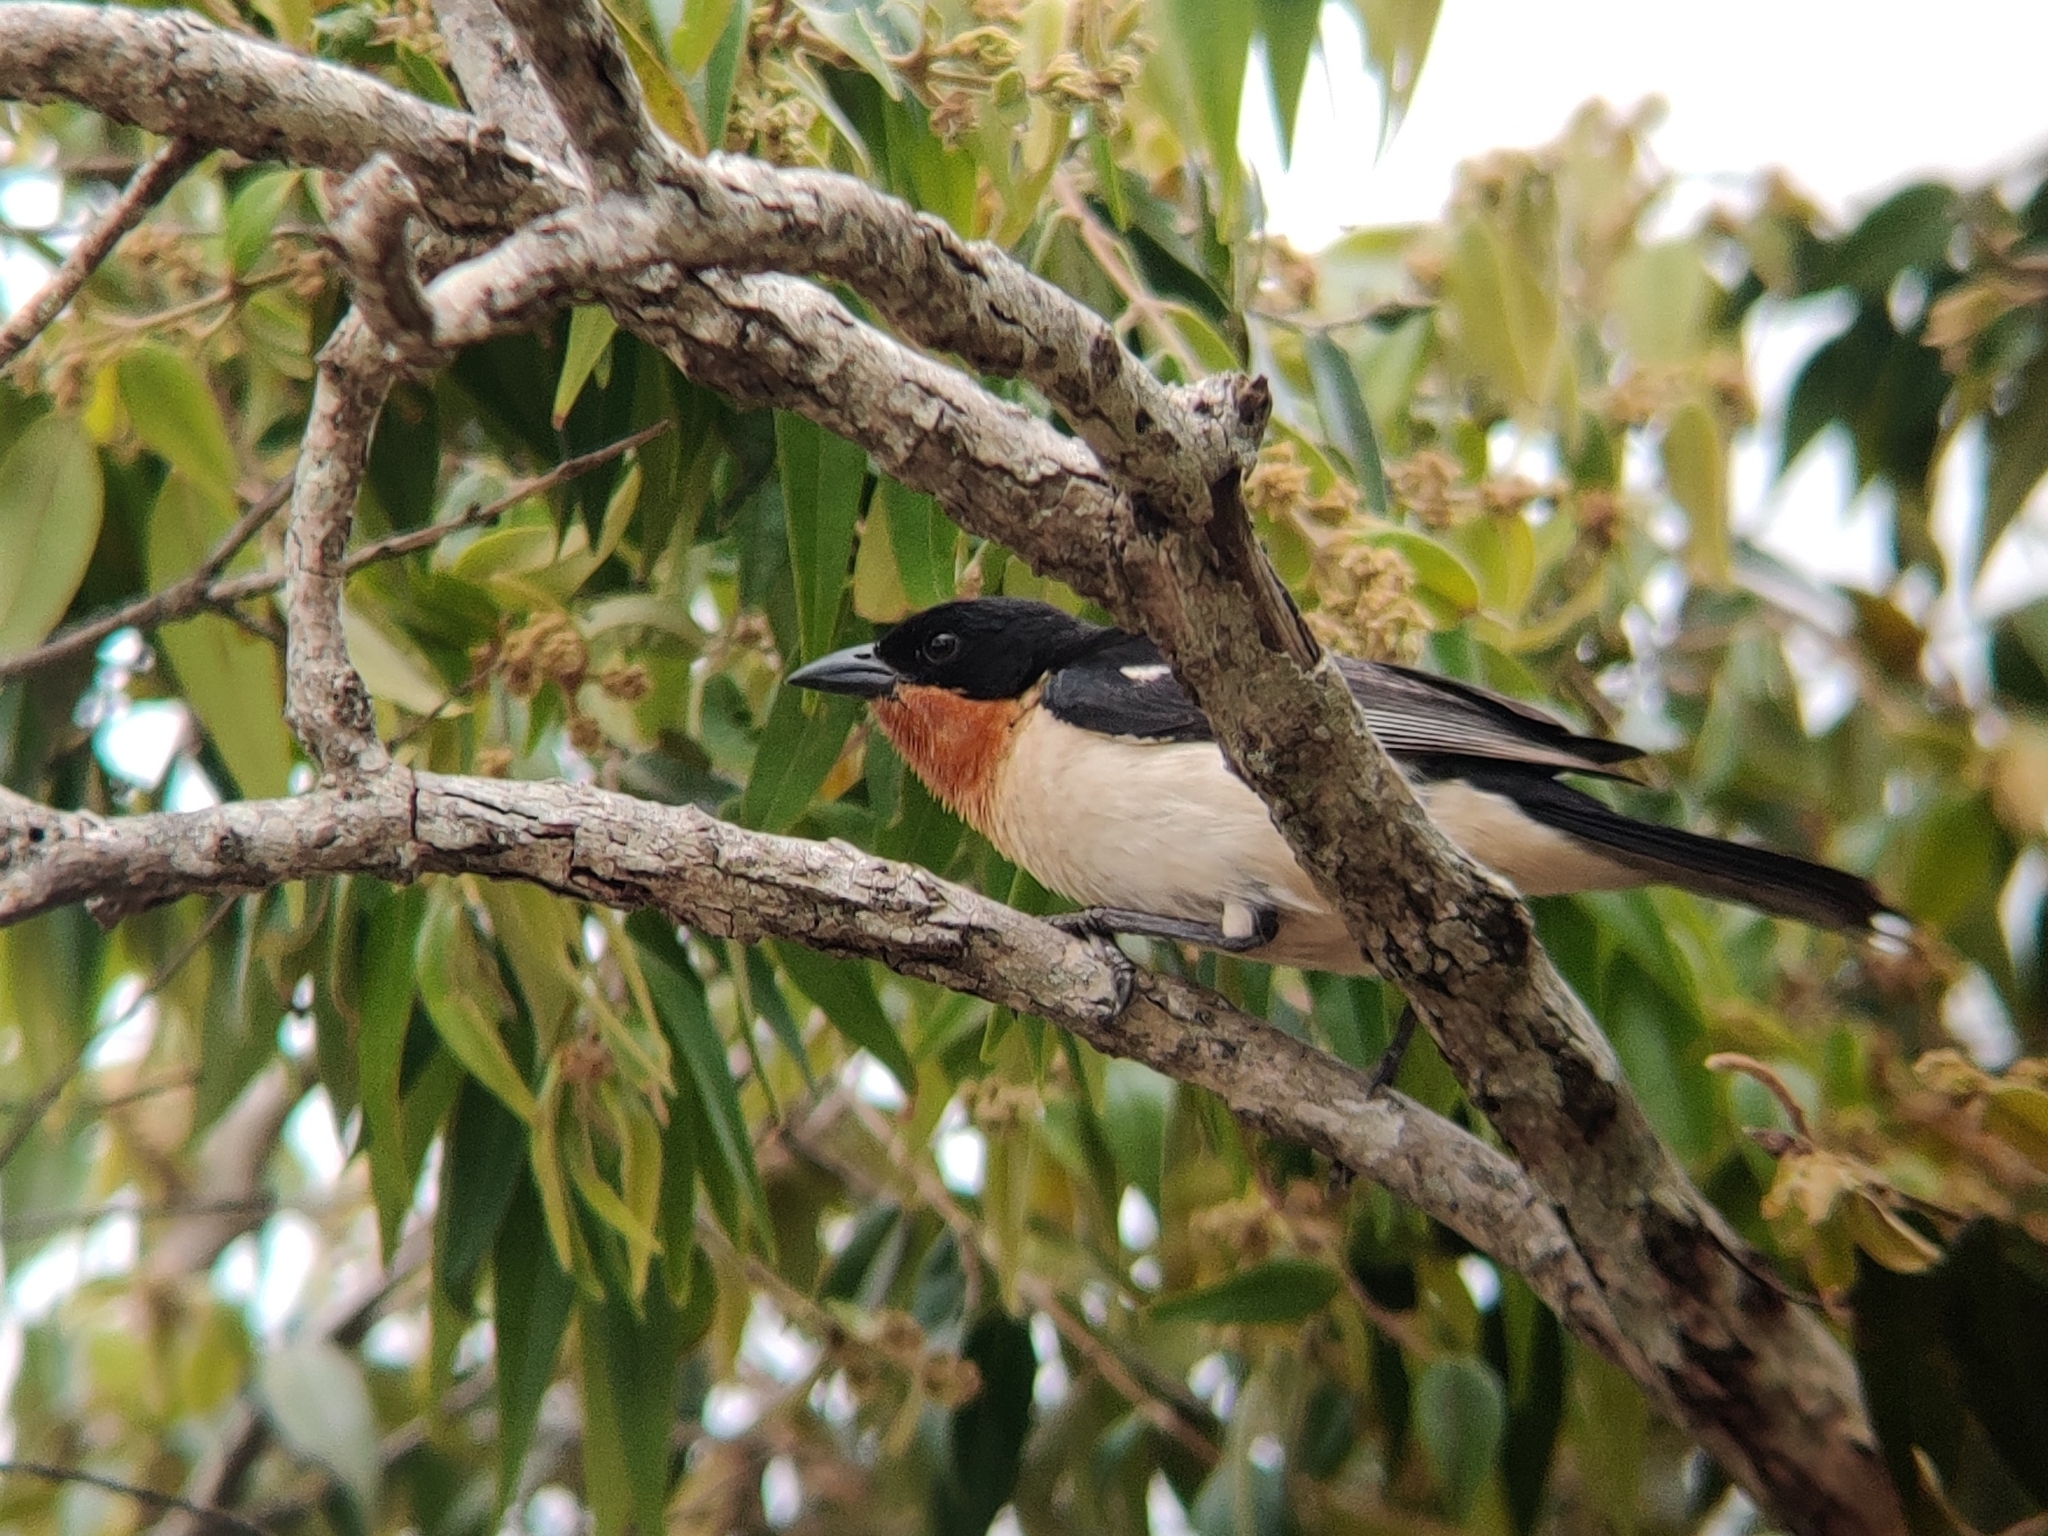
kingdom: Animalia
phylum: Chordata
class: Aves
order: Passeriformes
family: Thraupidae
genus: Cypsnagra
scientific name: Cypsnagra hirundinacea
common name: White-rumped tanager
